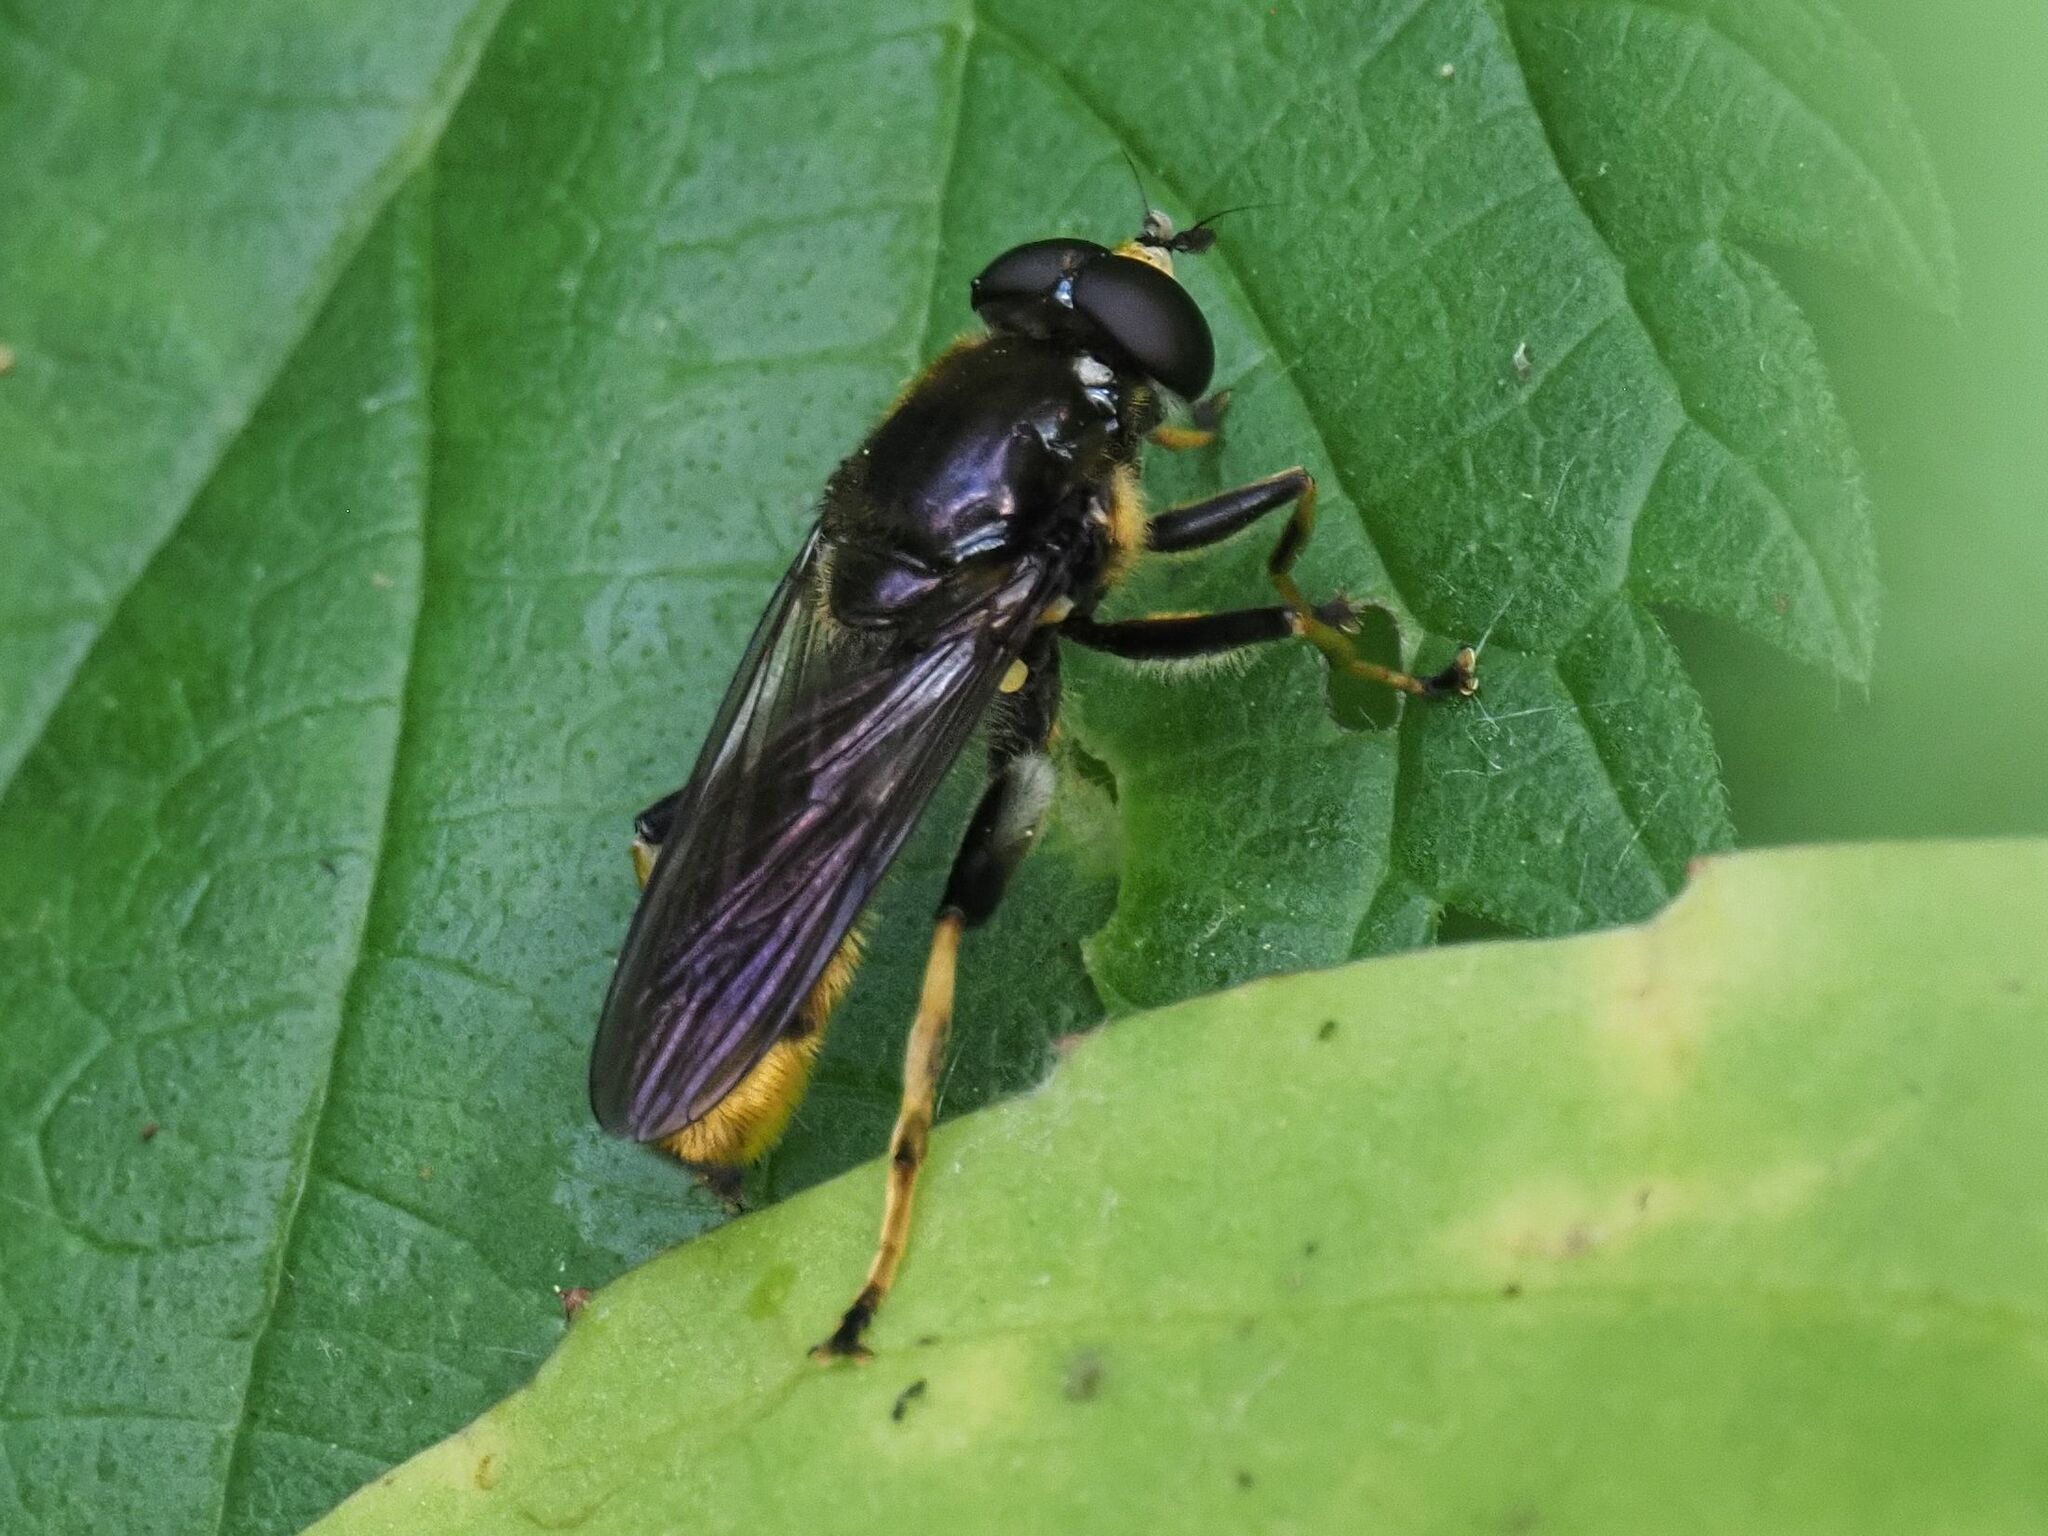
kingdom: Animalia
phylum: Arthropoda
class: Insecta
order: Diptera
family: Syrphidae
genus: Xylota
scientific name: Xylota sylvarum
